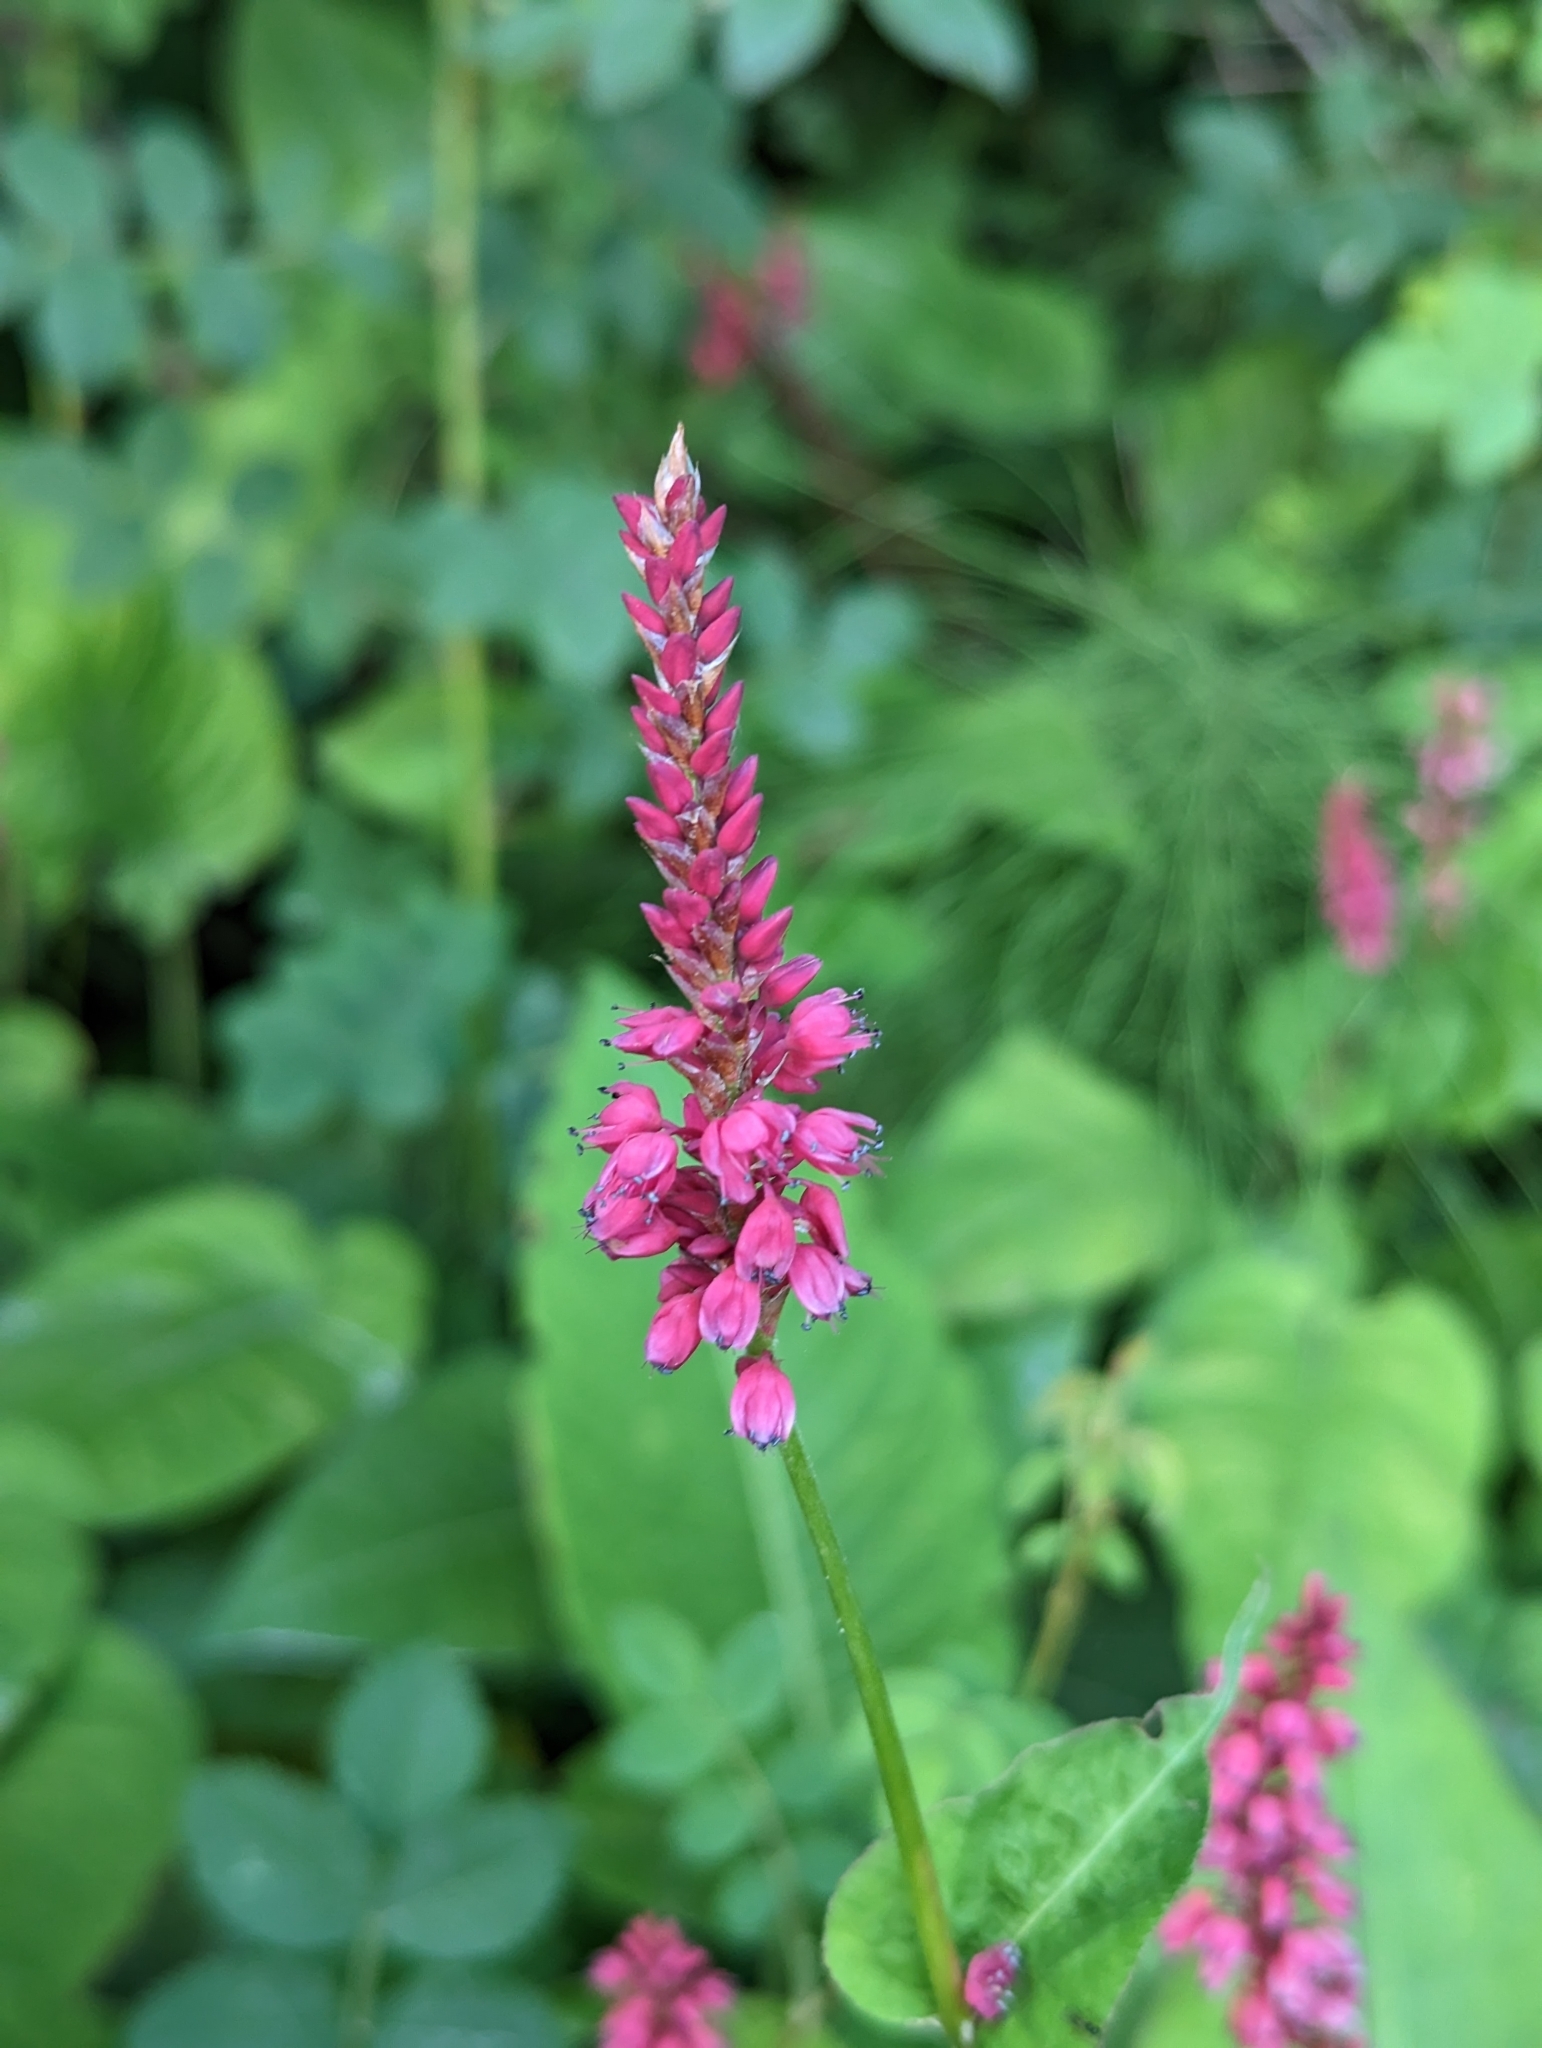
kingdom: Plantae
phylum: Tracheophyta
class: Magnoliopsida
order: Caryophyllales
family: Polygonaceae
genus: Bistorta
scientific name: Bistorta amplexicaulis
